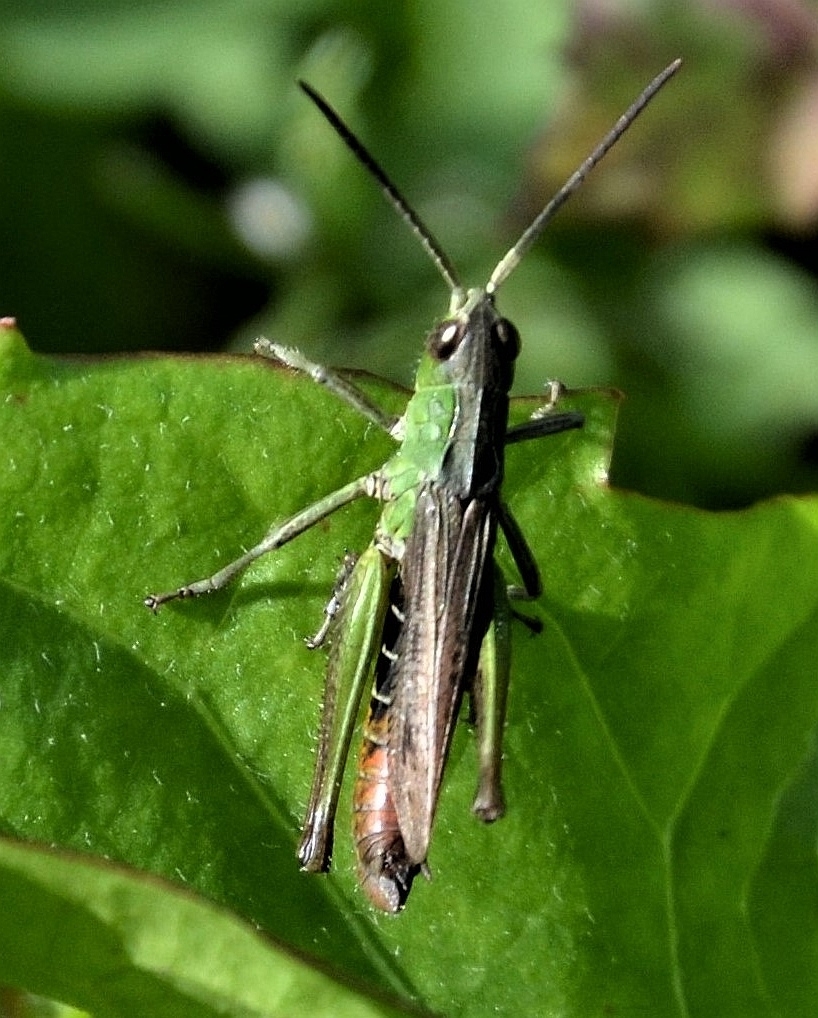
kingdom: Animalia
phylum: Arthropoda
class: Insecta
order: Orthoptera
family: Acrididae
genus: Chorthippus
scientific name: Chorthippus dorsatus
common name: Steppe grasshopper
